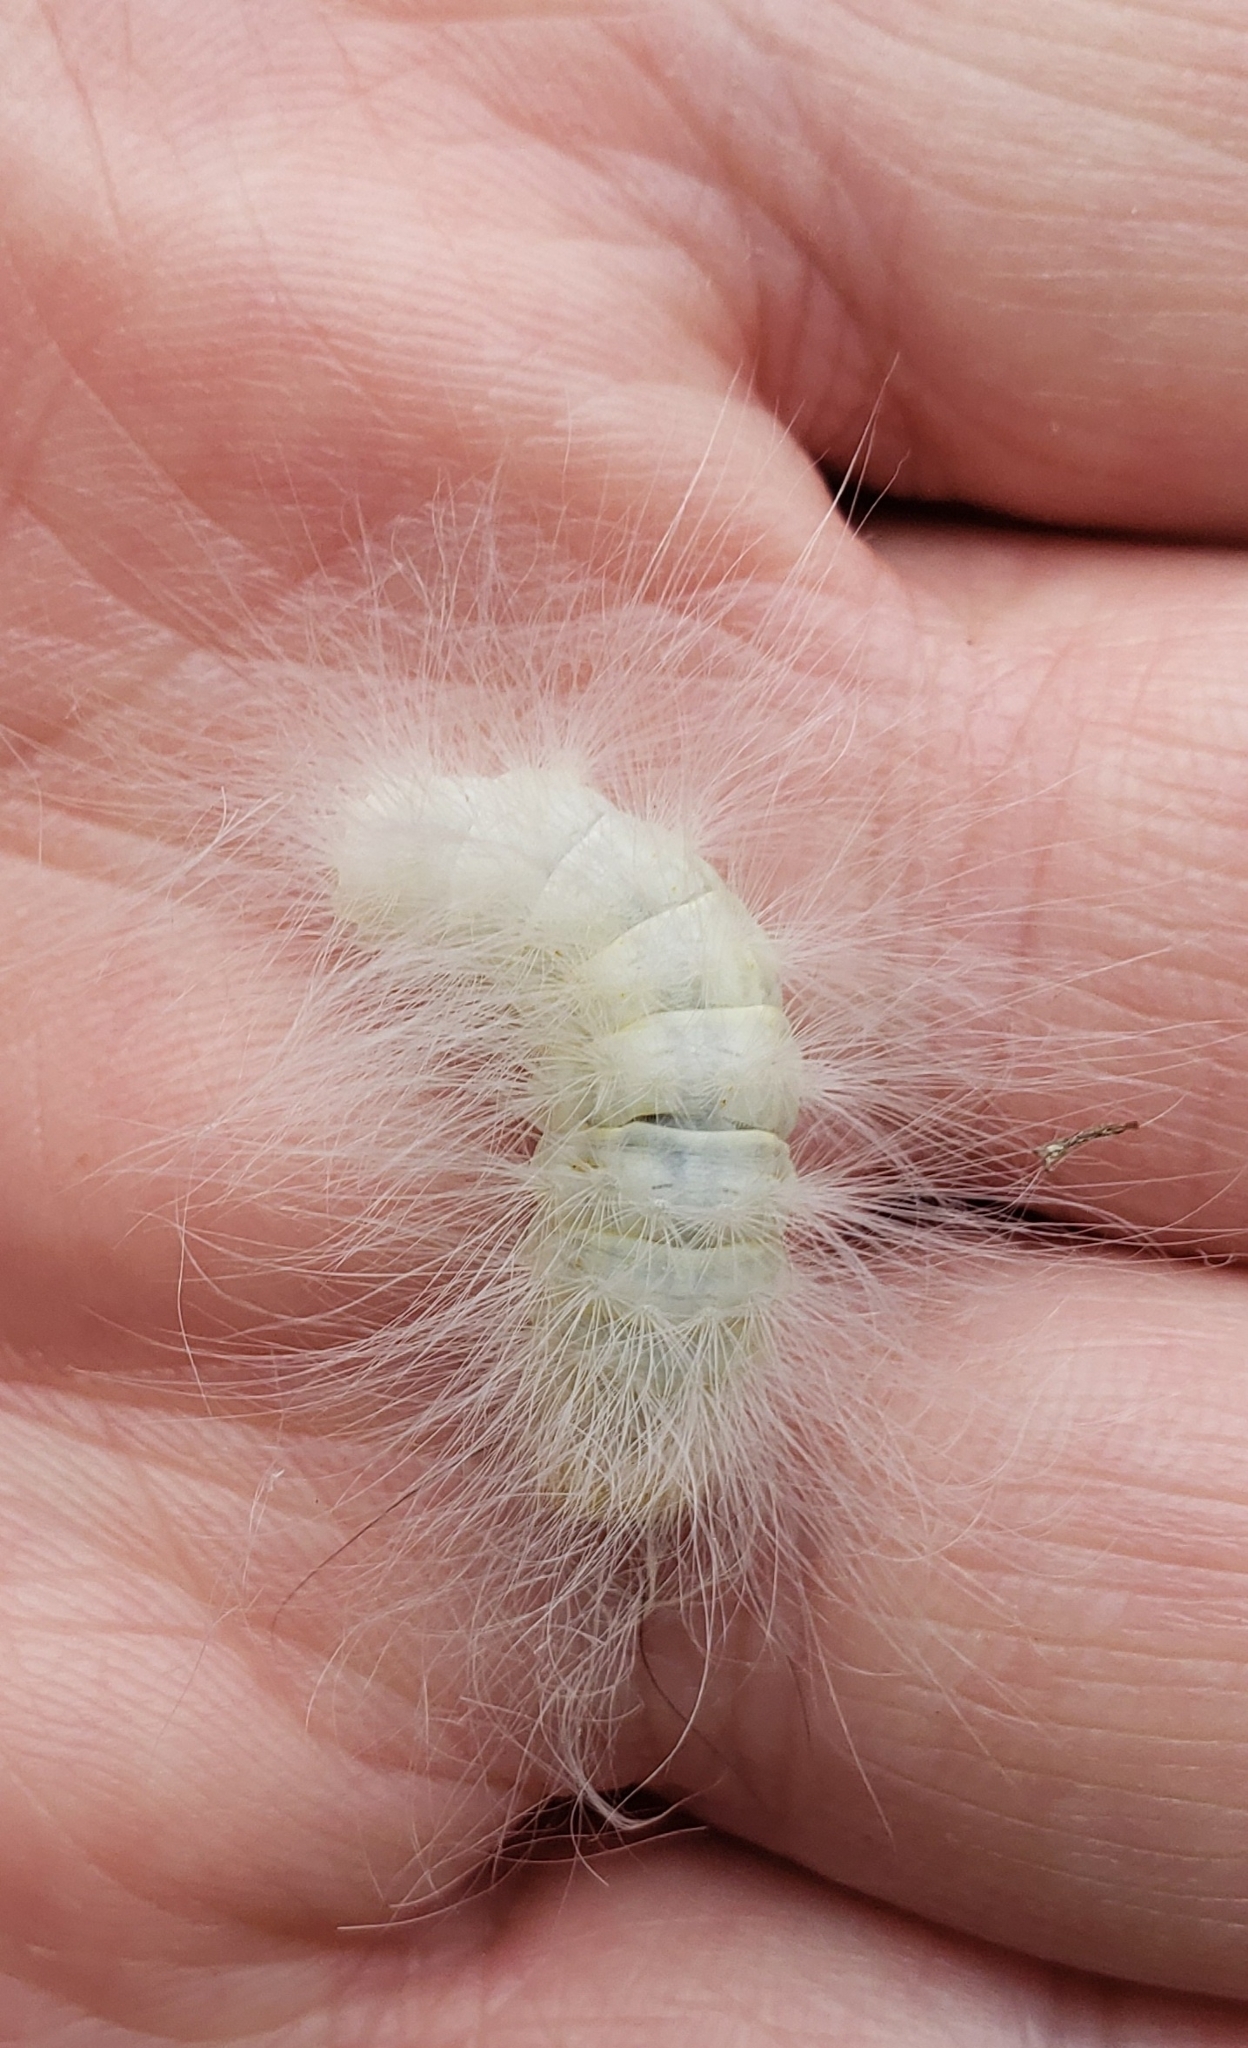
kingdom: Animalia
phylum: Arthropoda
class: Insecta
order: Lepidoptera
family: Noctuidae
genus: Charadra
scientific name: Charadra deridens
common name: Marbled tuffet
